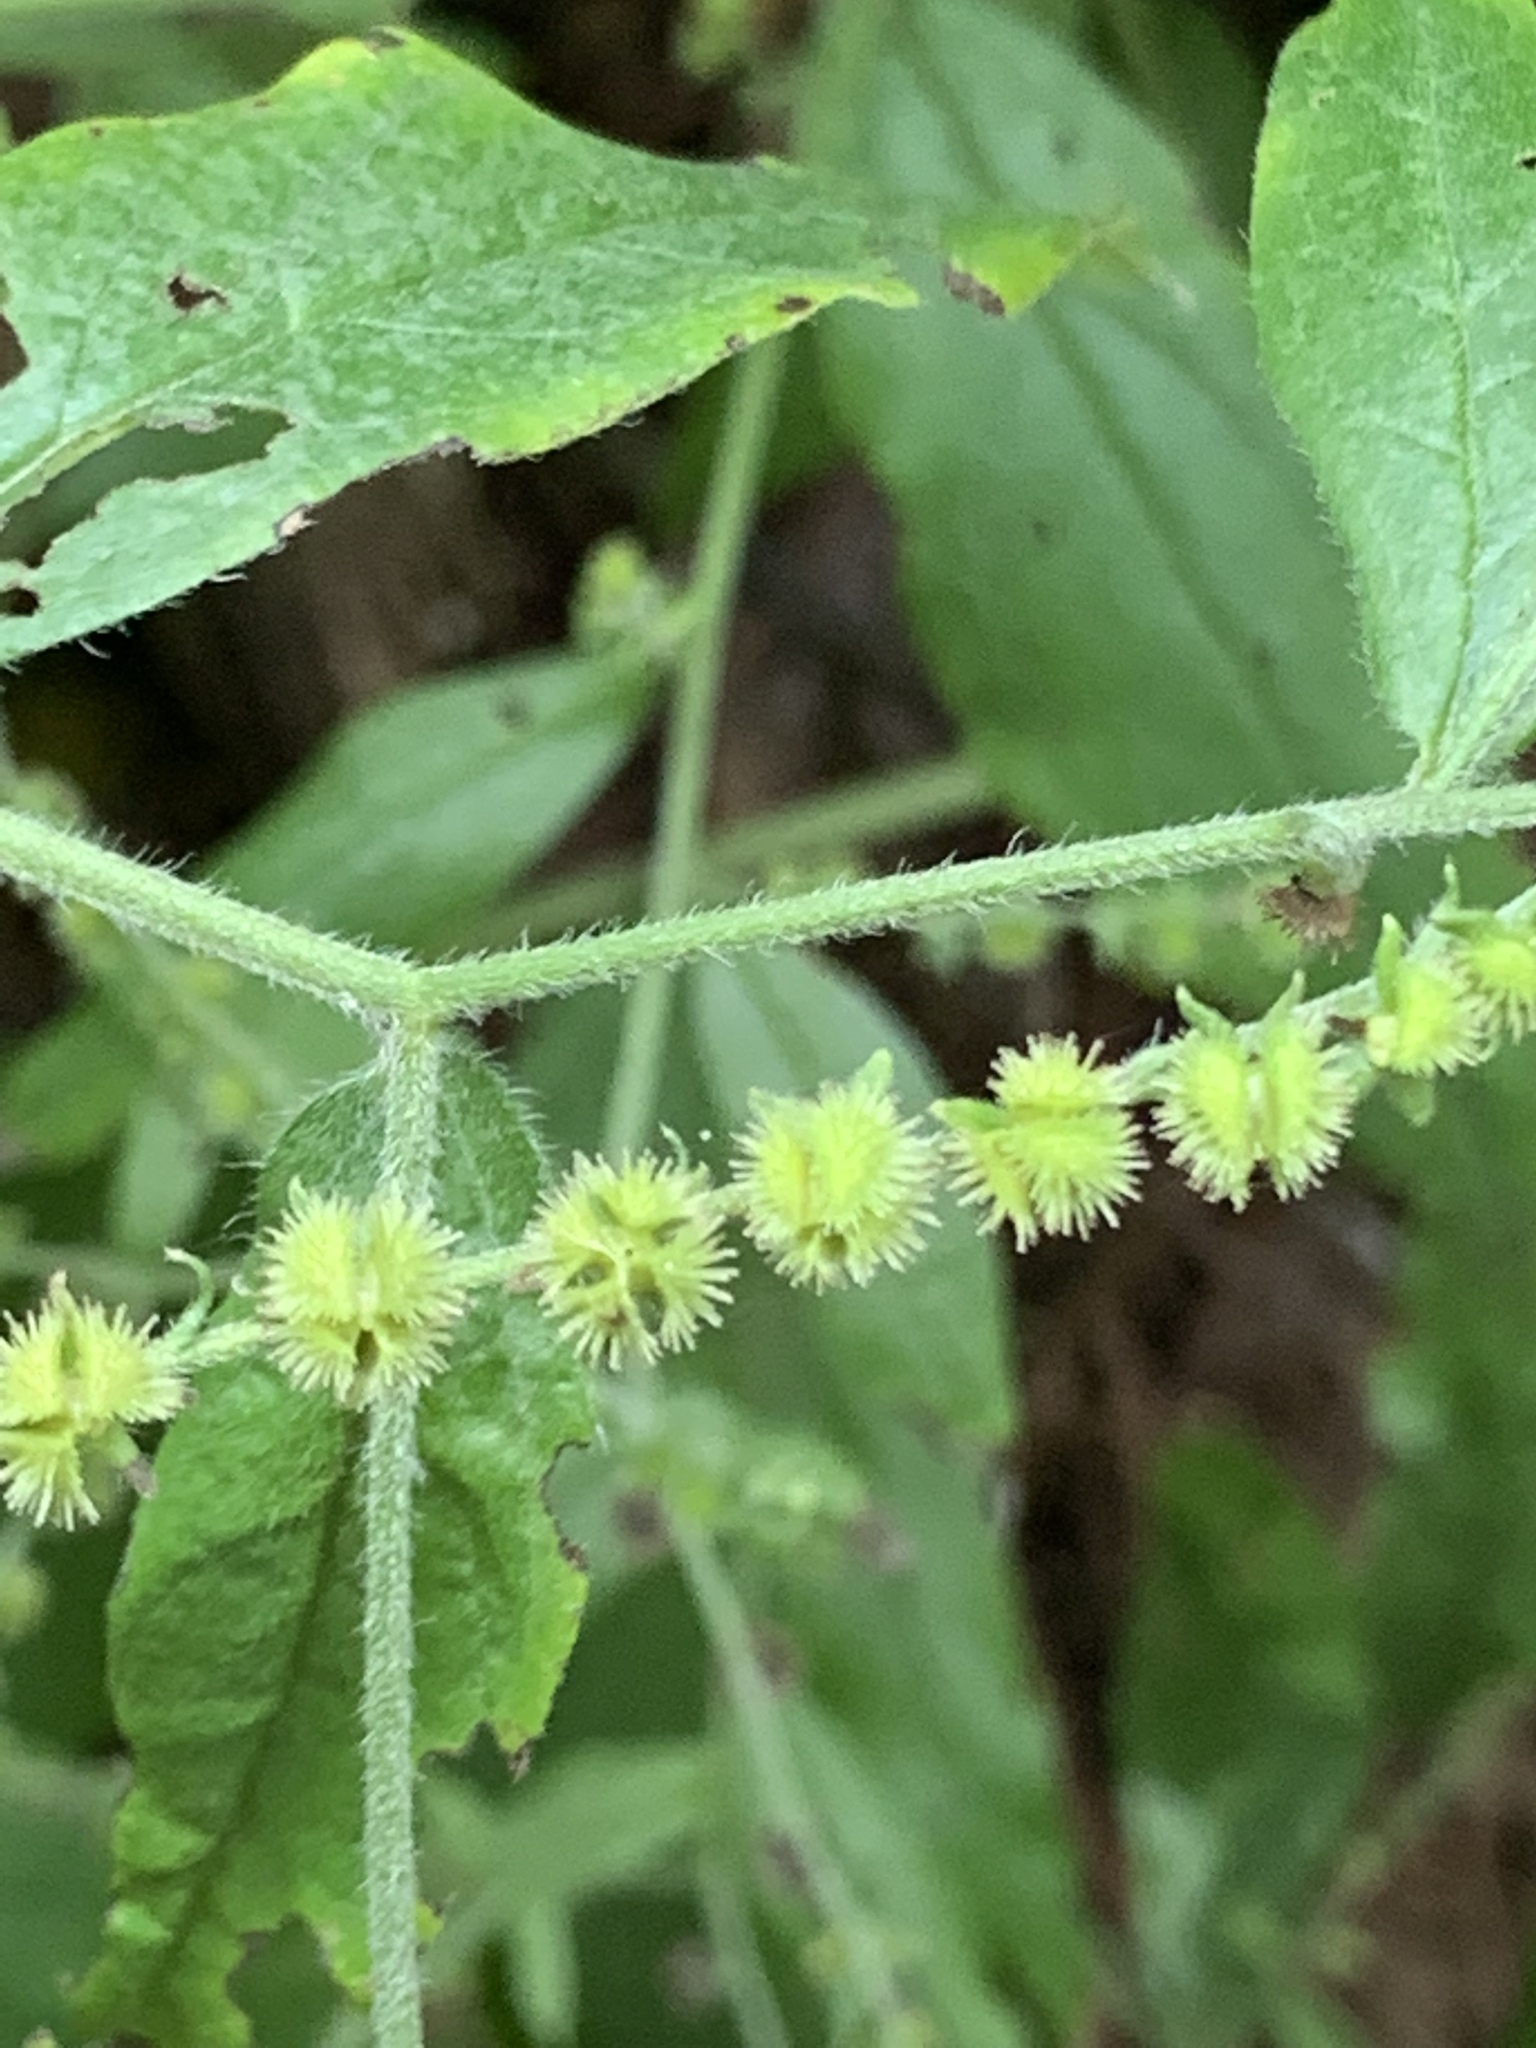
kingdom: Plantae
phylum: Tracheophyta
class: Magnoliopsida
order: Boraginales
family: Boraginaceae
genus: Hackelia
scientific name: Hackelia virginiana
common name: Beggar's-lice
